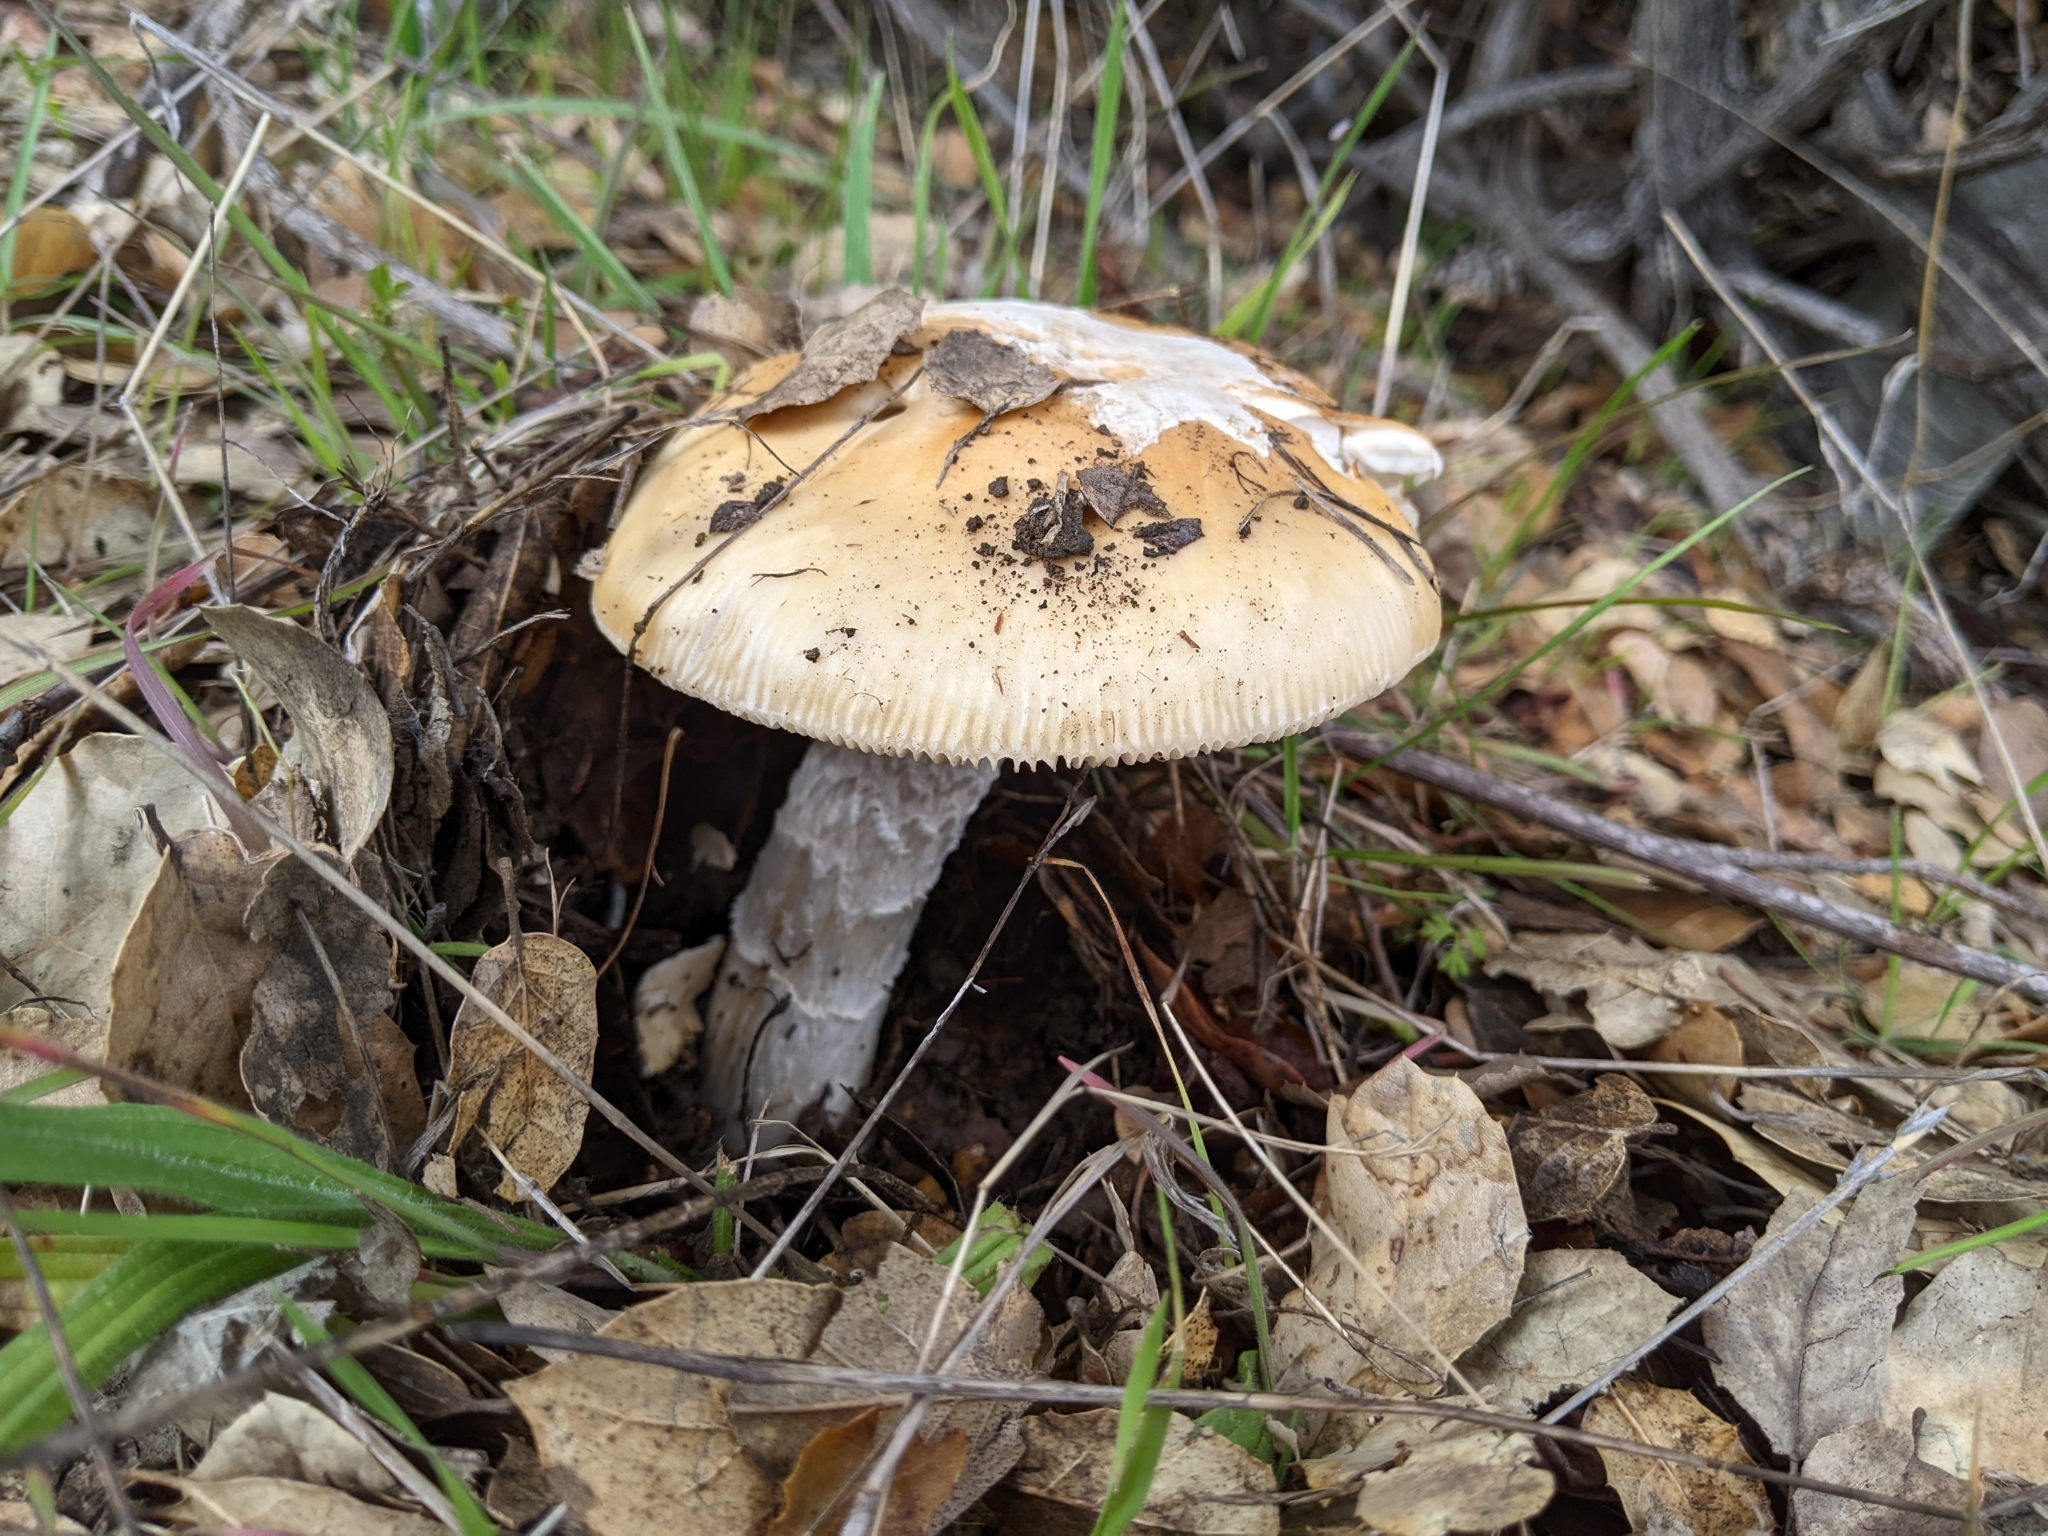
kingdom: Fungi
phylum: Basidiomycota
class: Agaricomycetes
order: Agaricales
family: Amanitaceae
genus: Amanita
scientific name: Amanita velosa
